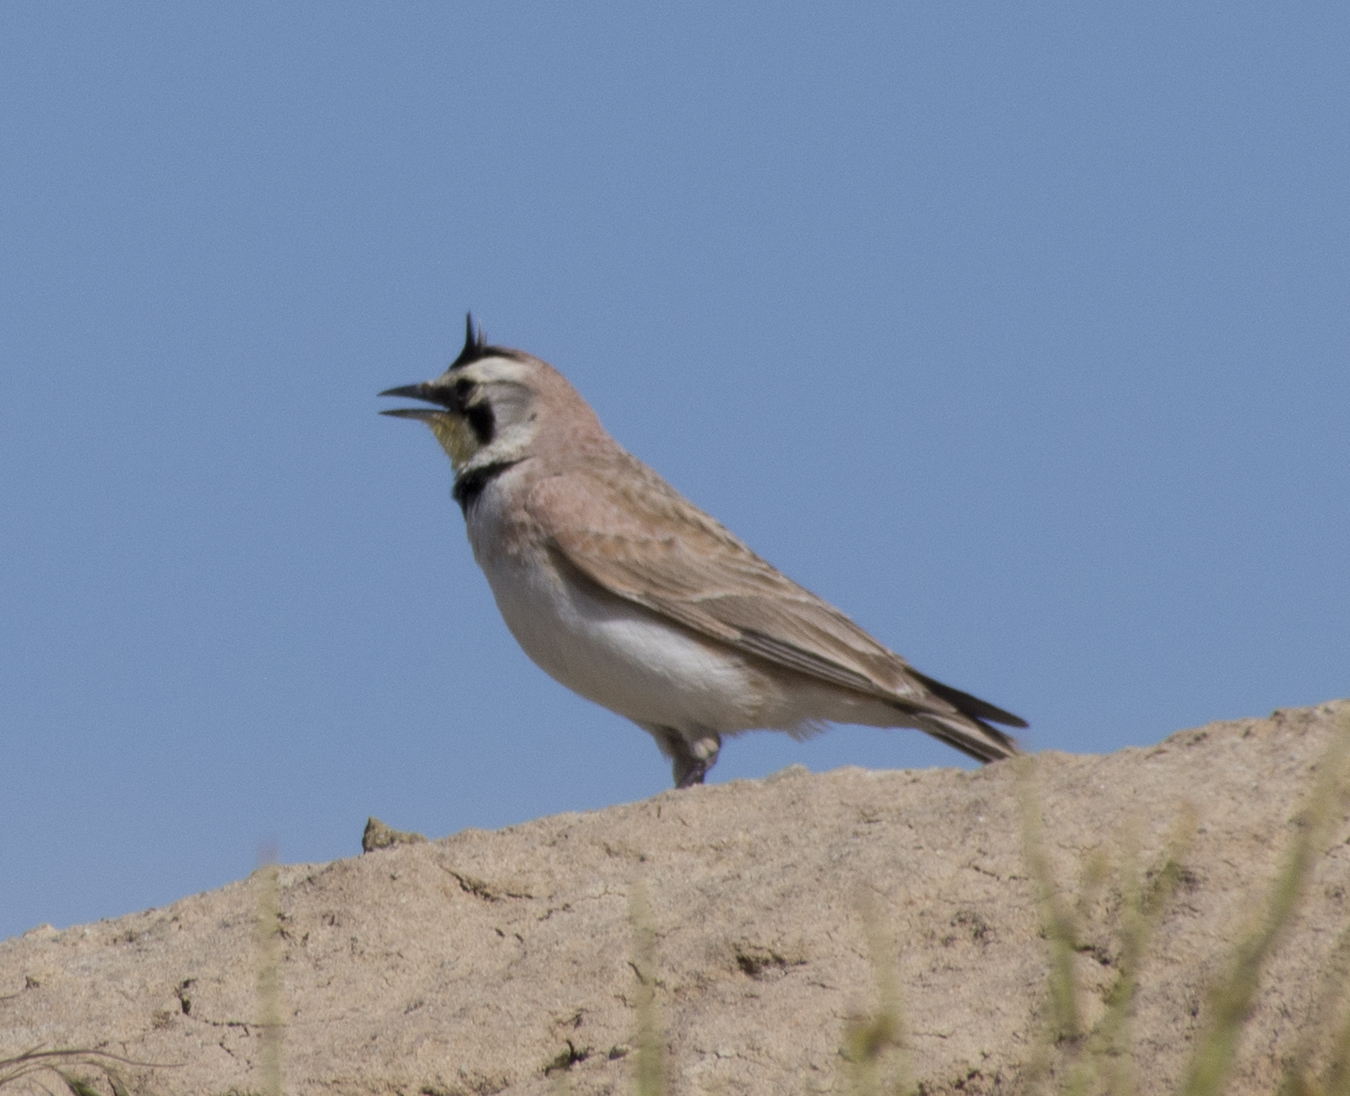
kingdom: Animalia
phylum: Chordata
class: Aves
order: Passeriformes
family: Alaudidae
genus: Eremophila
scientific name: Eremophila alpestris
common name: Horned lark
